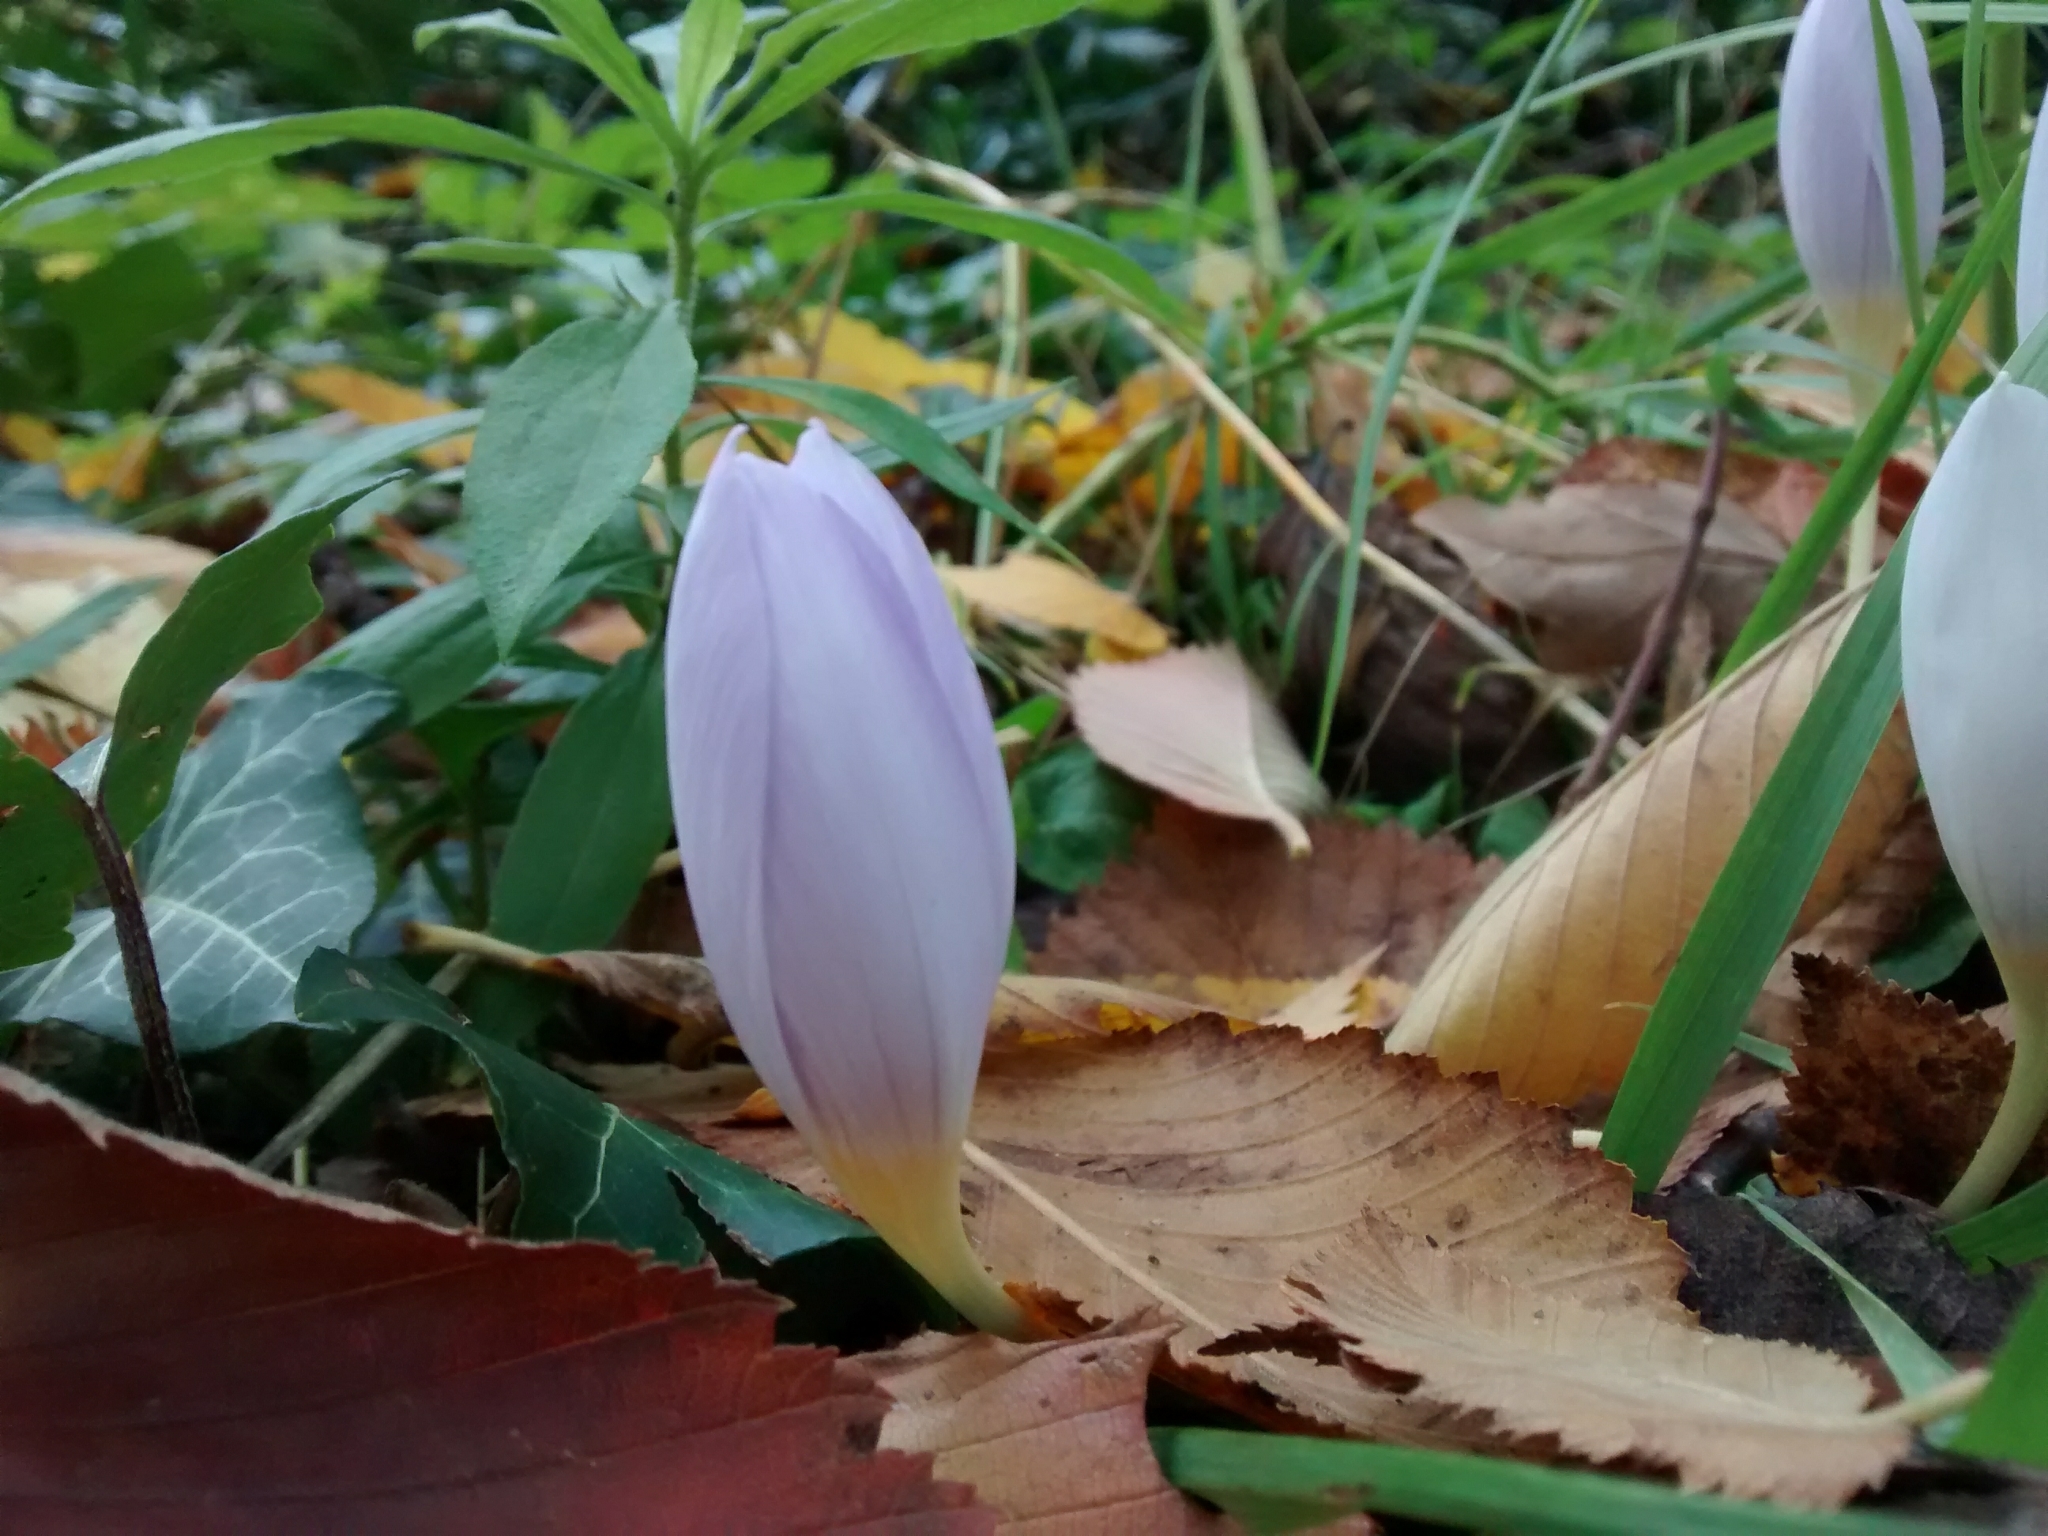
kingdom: Plantae
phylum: Tracheophyta
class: Liliopsida
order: Liliales
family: Colchicaceae
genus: Colchicum
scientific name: Colchicum autumnale
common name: Autumn crocus
